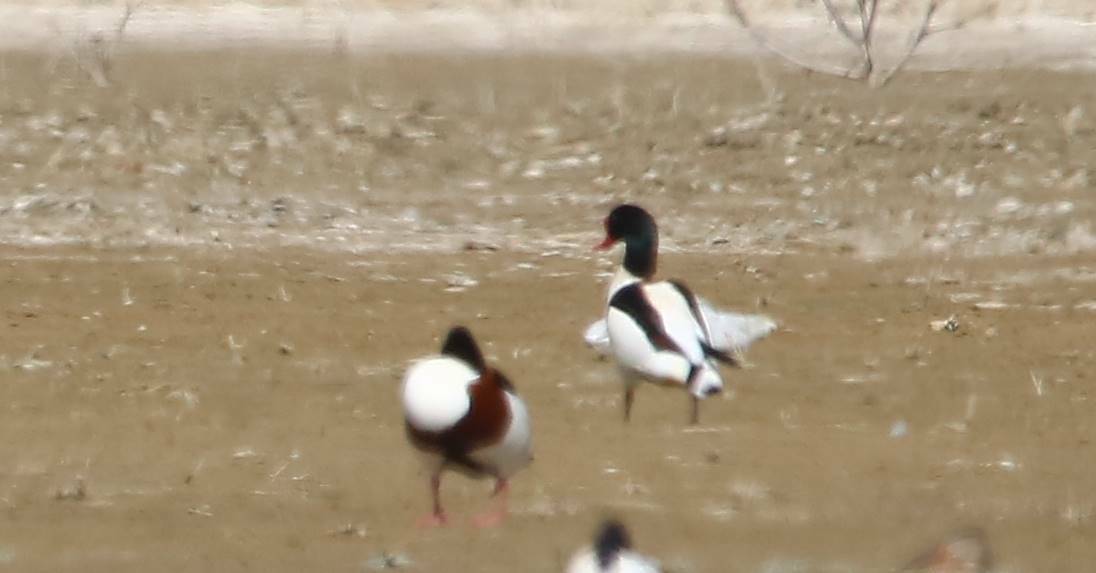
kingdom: Animalia
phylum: Chordata
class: Aves
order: Anseriformes
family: Anatidae
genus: Tadorna
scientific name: Tadorna tadorna
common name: Common shelduck
